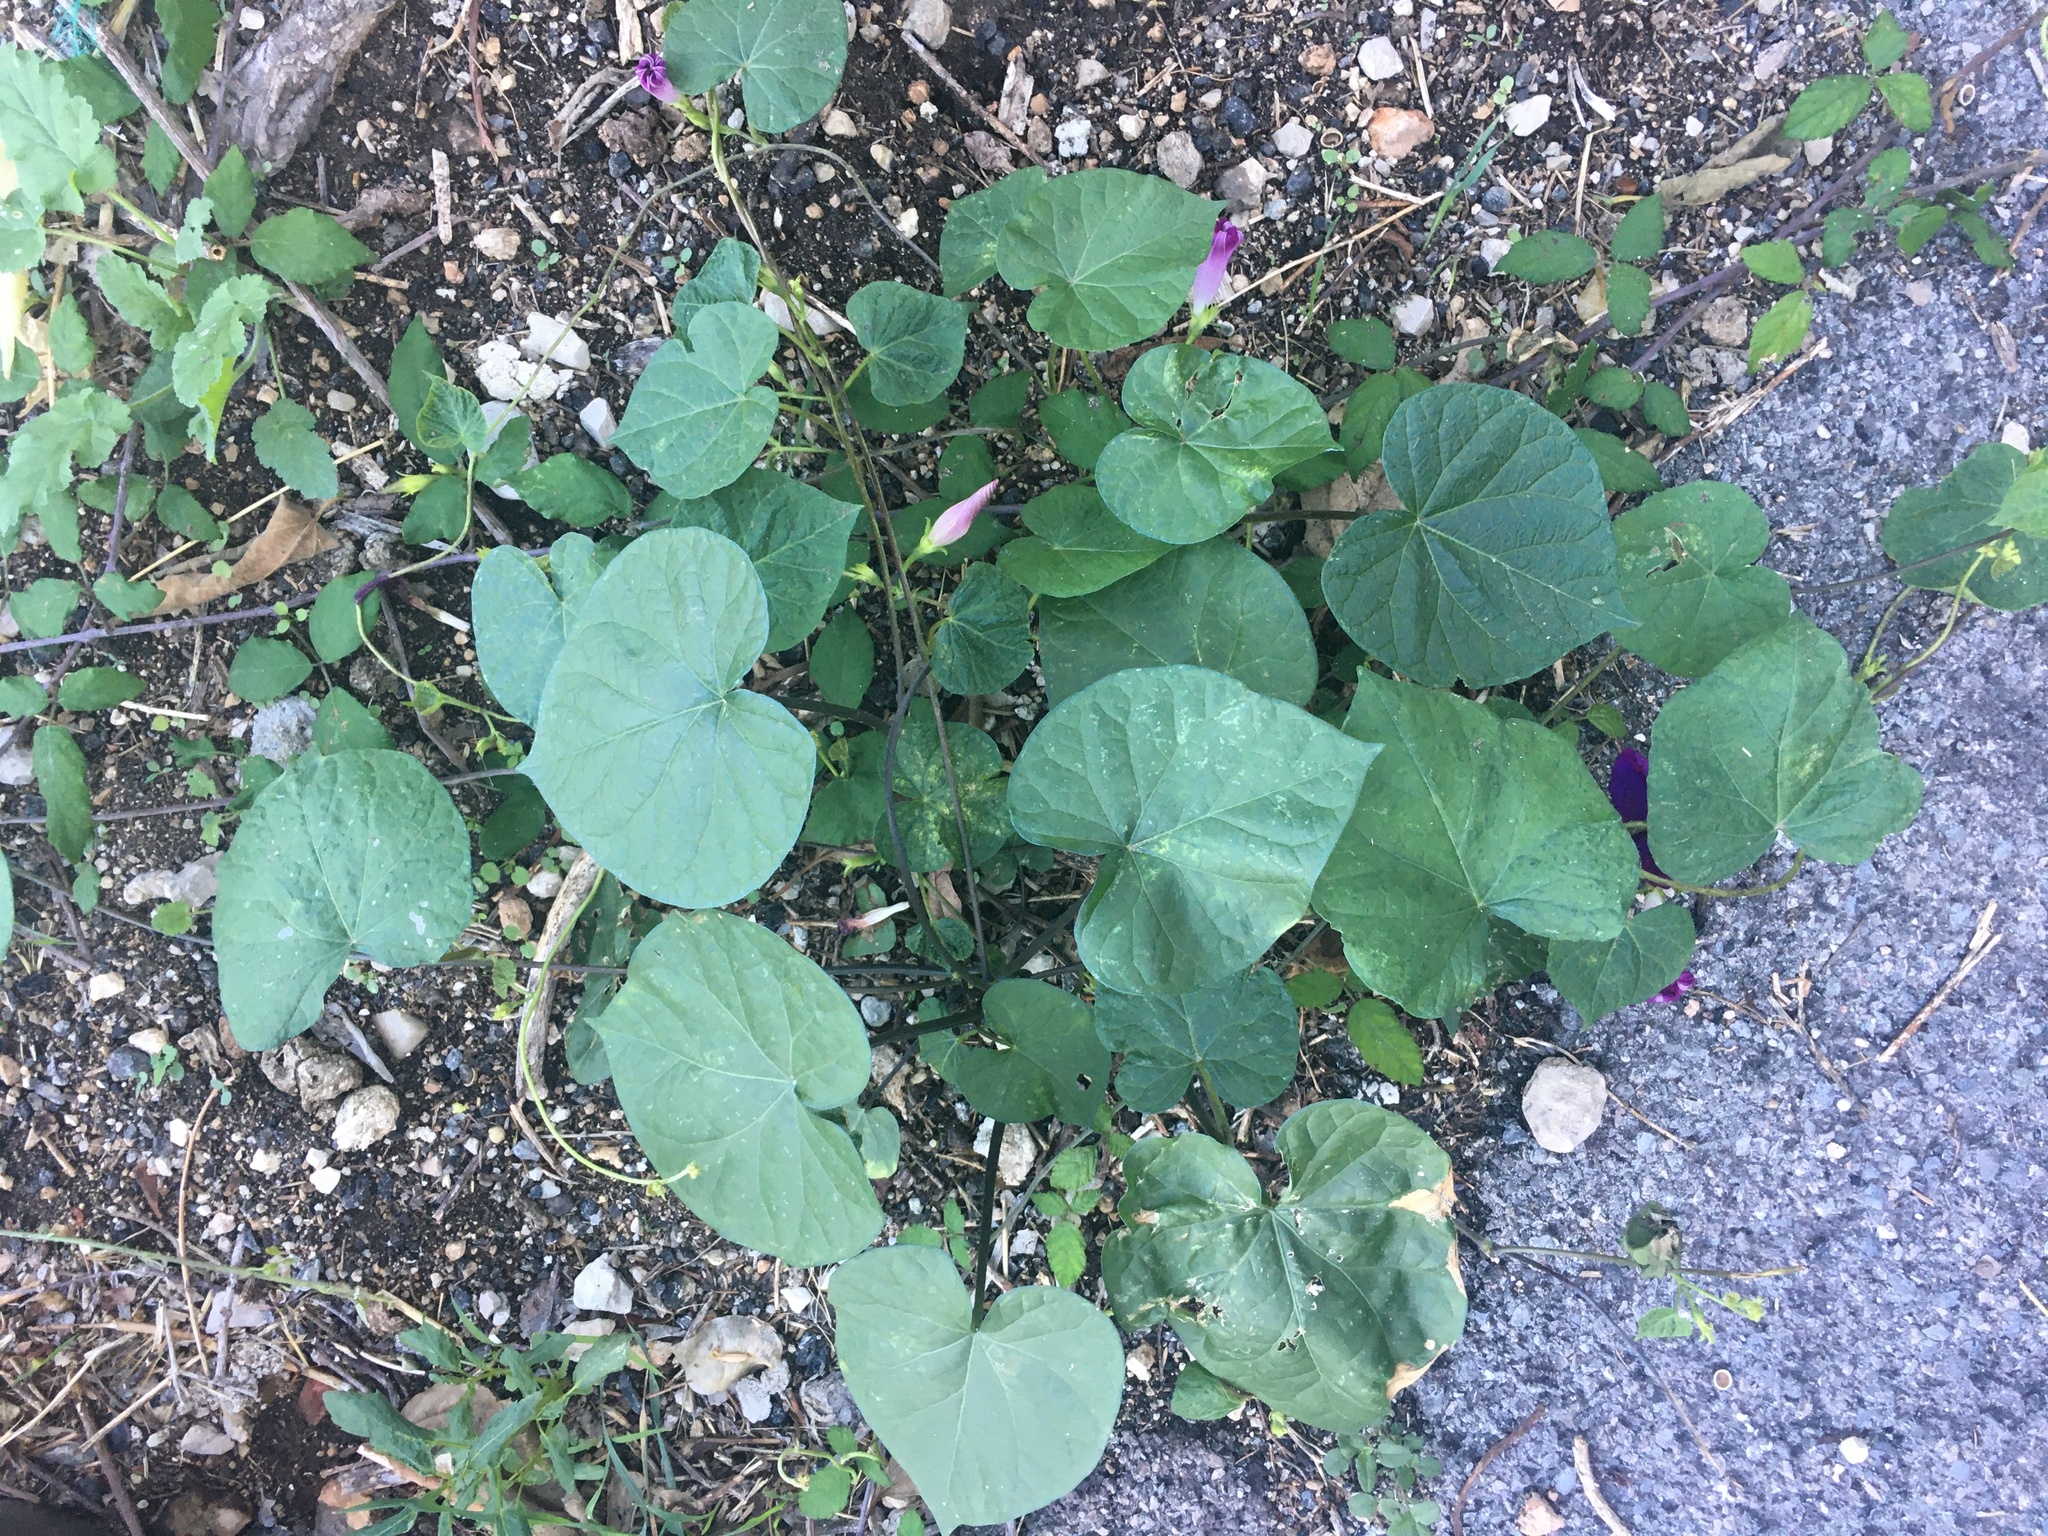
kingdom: Plantae
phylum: Tracheophyta
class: Magnoliopsida
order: Solanales
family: Convolvulaceae
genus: Ipomoea
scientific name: Ipomoea purpurea
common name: Common morning-glory
